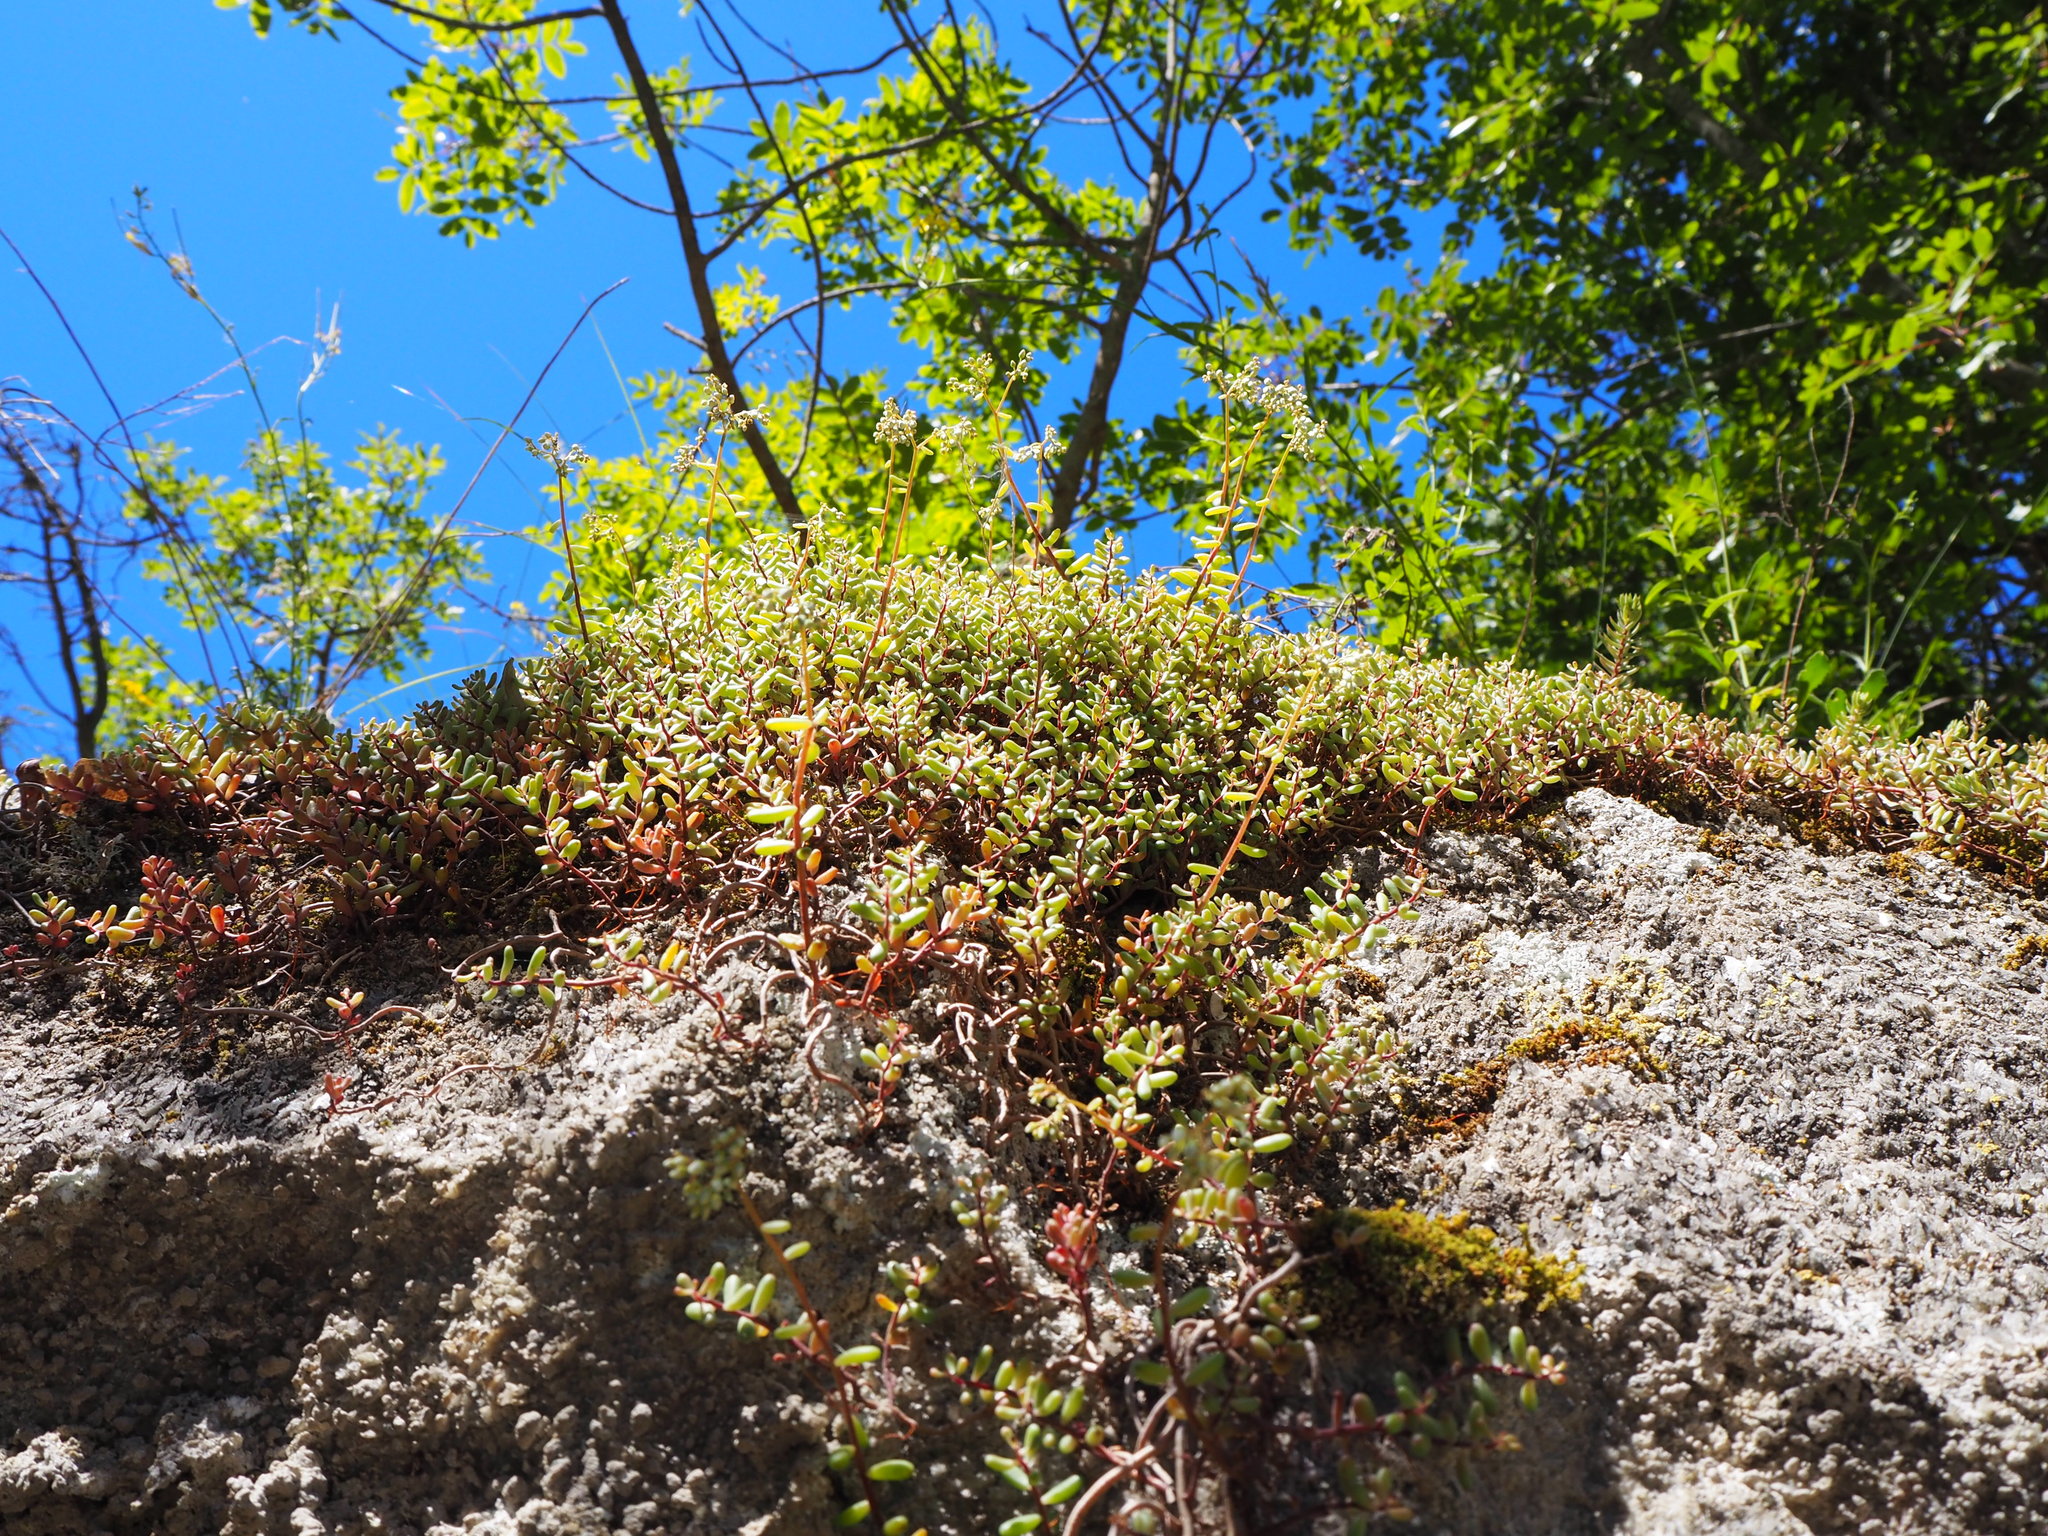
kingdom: Plantae
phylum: Tracheophyta
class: Magnoliopsida
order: Saxifragales
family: Crassulaceae
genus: Sedum
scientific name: Sedum album
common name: White stonecrop
